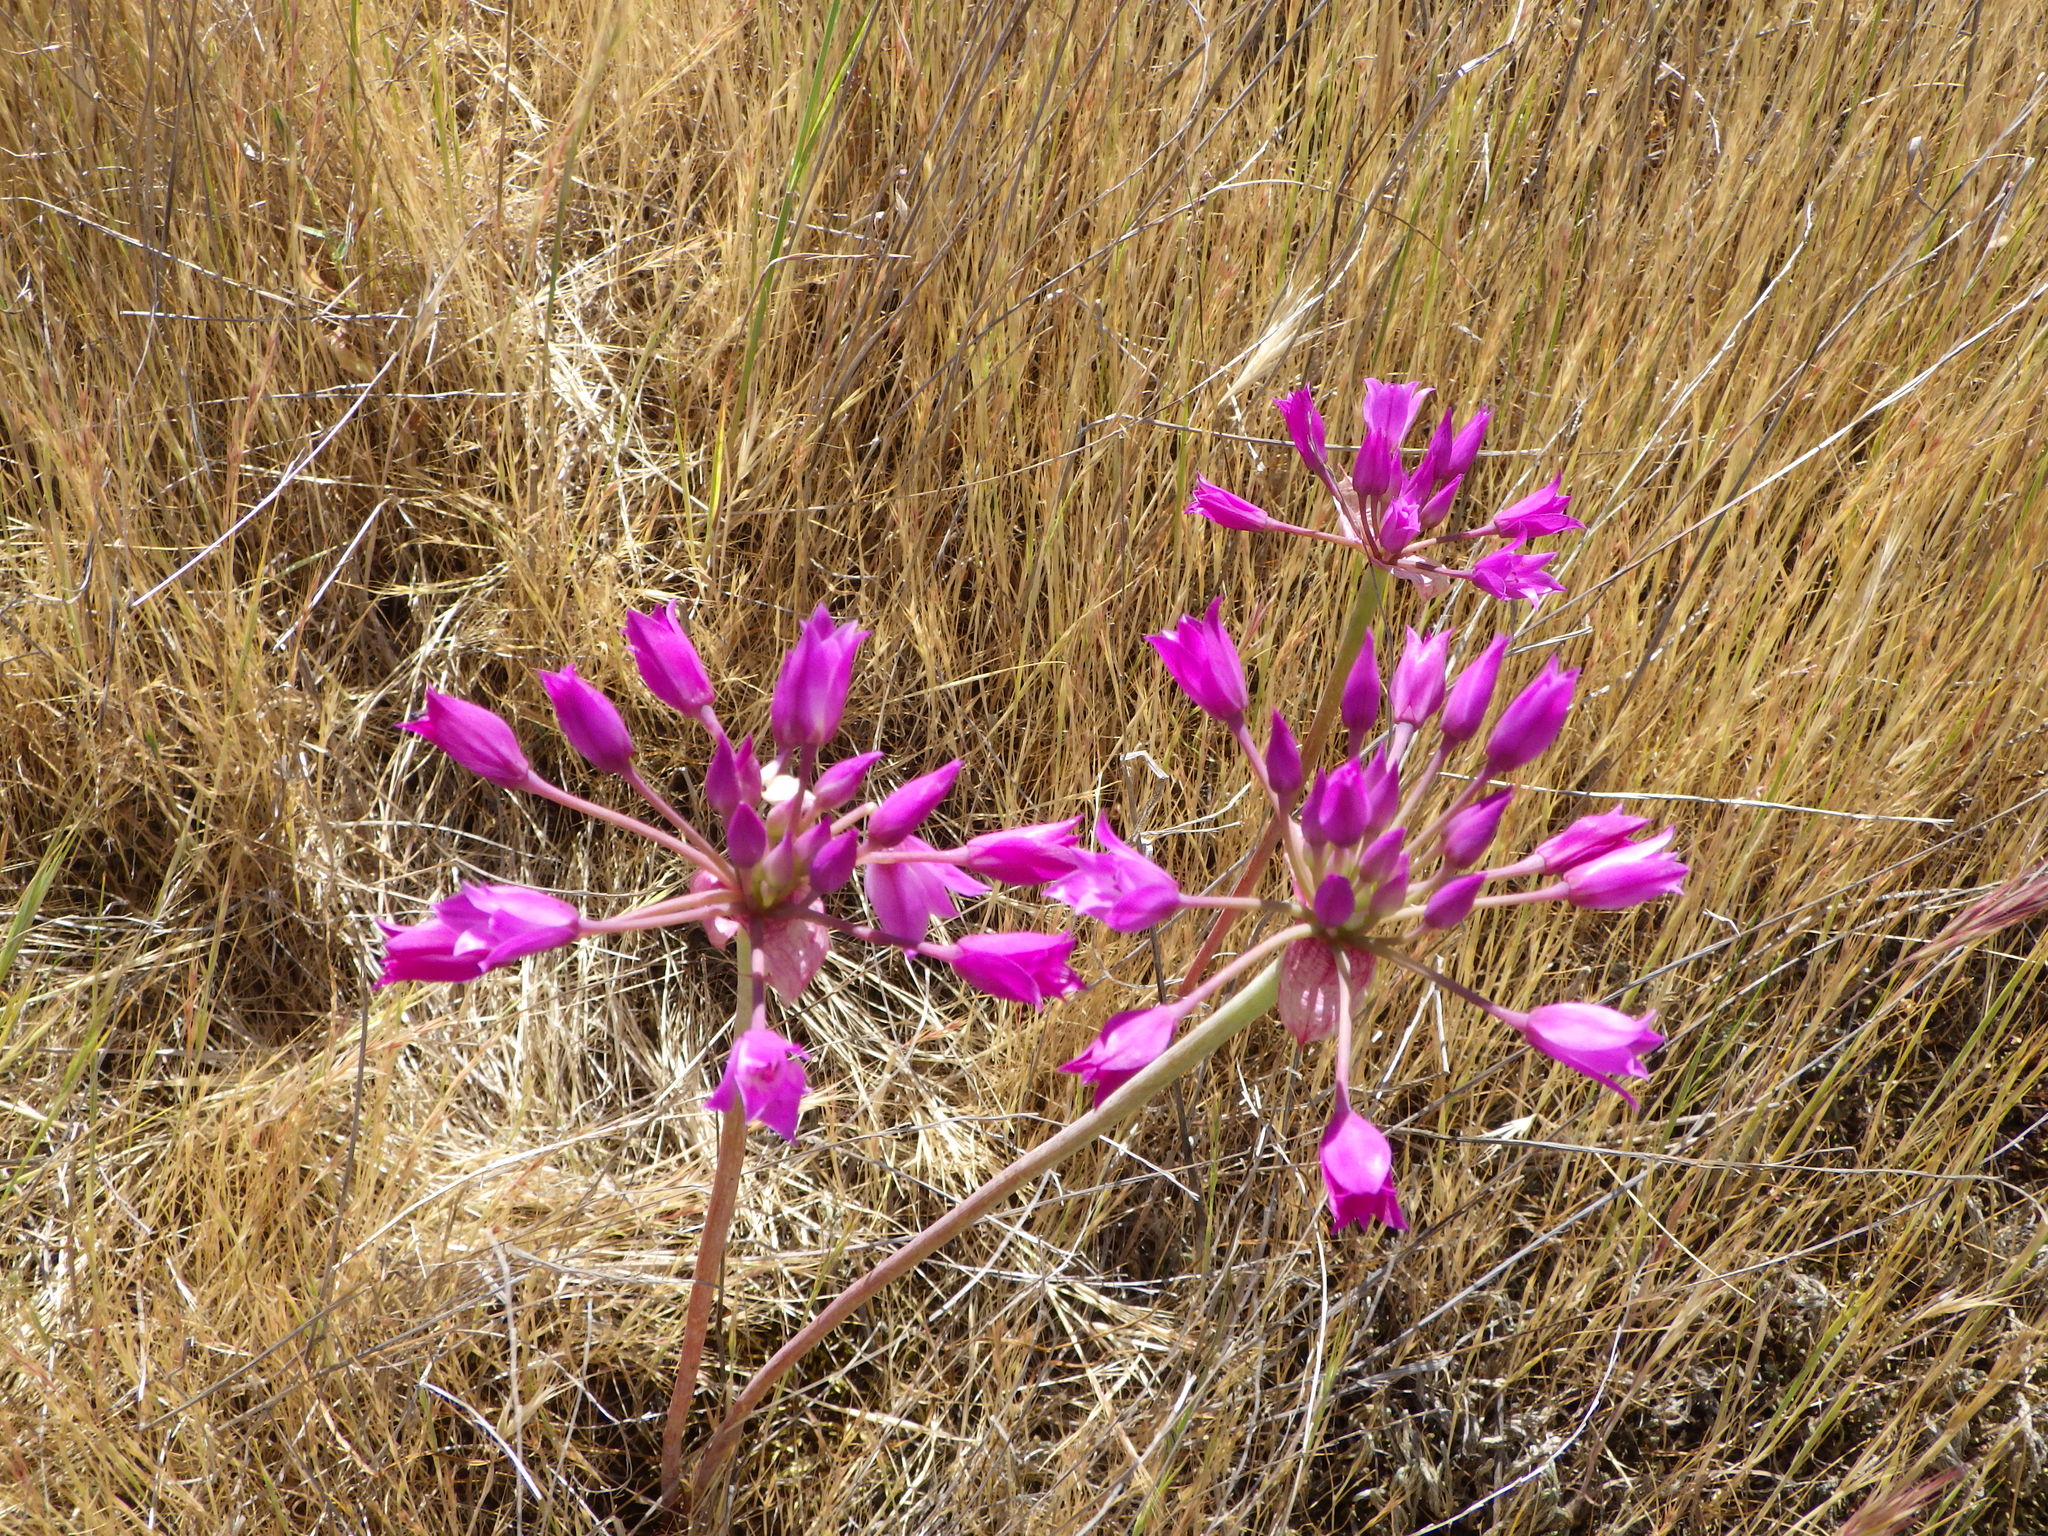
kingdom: Plantae
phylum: Tracheophyta
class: Liliopsida
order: Asparagales
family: Amaryllidaceae
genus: Allium
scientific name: Allium peninsulare
